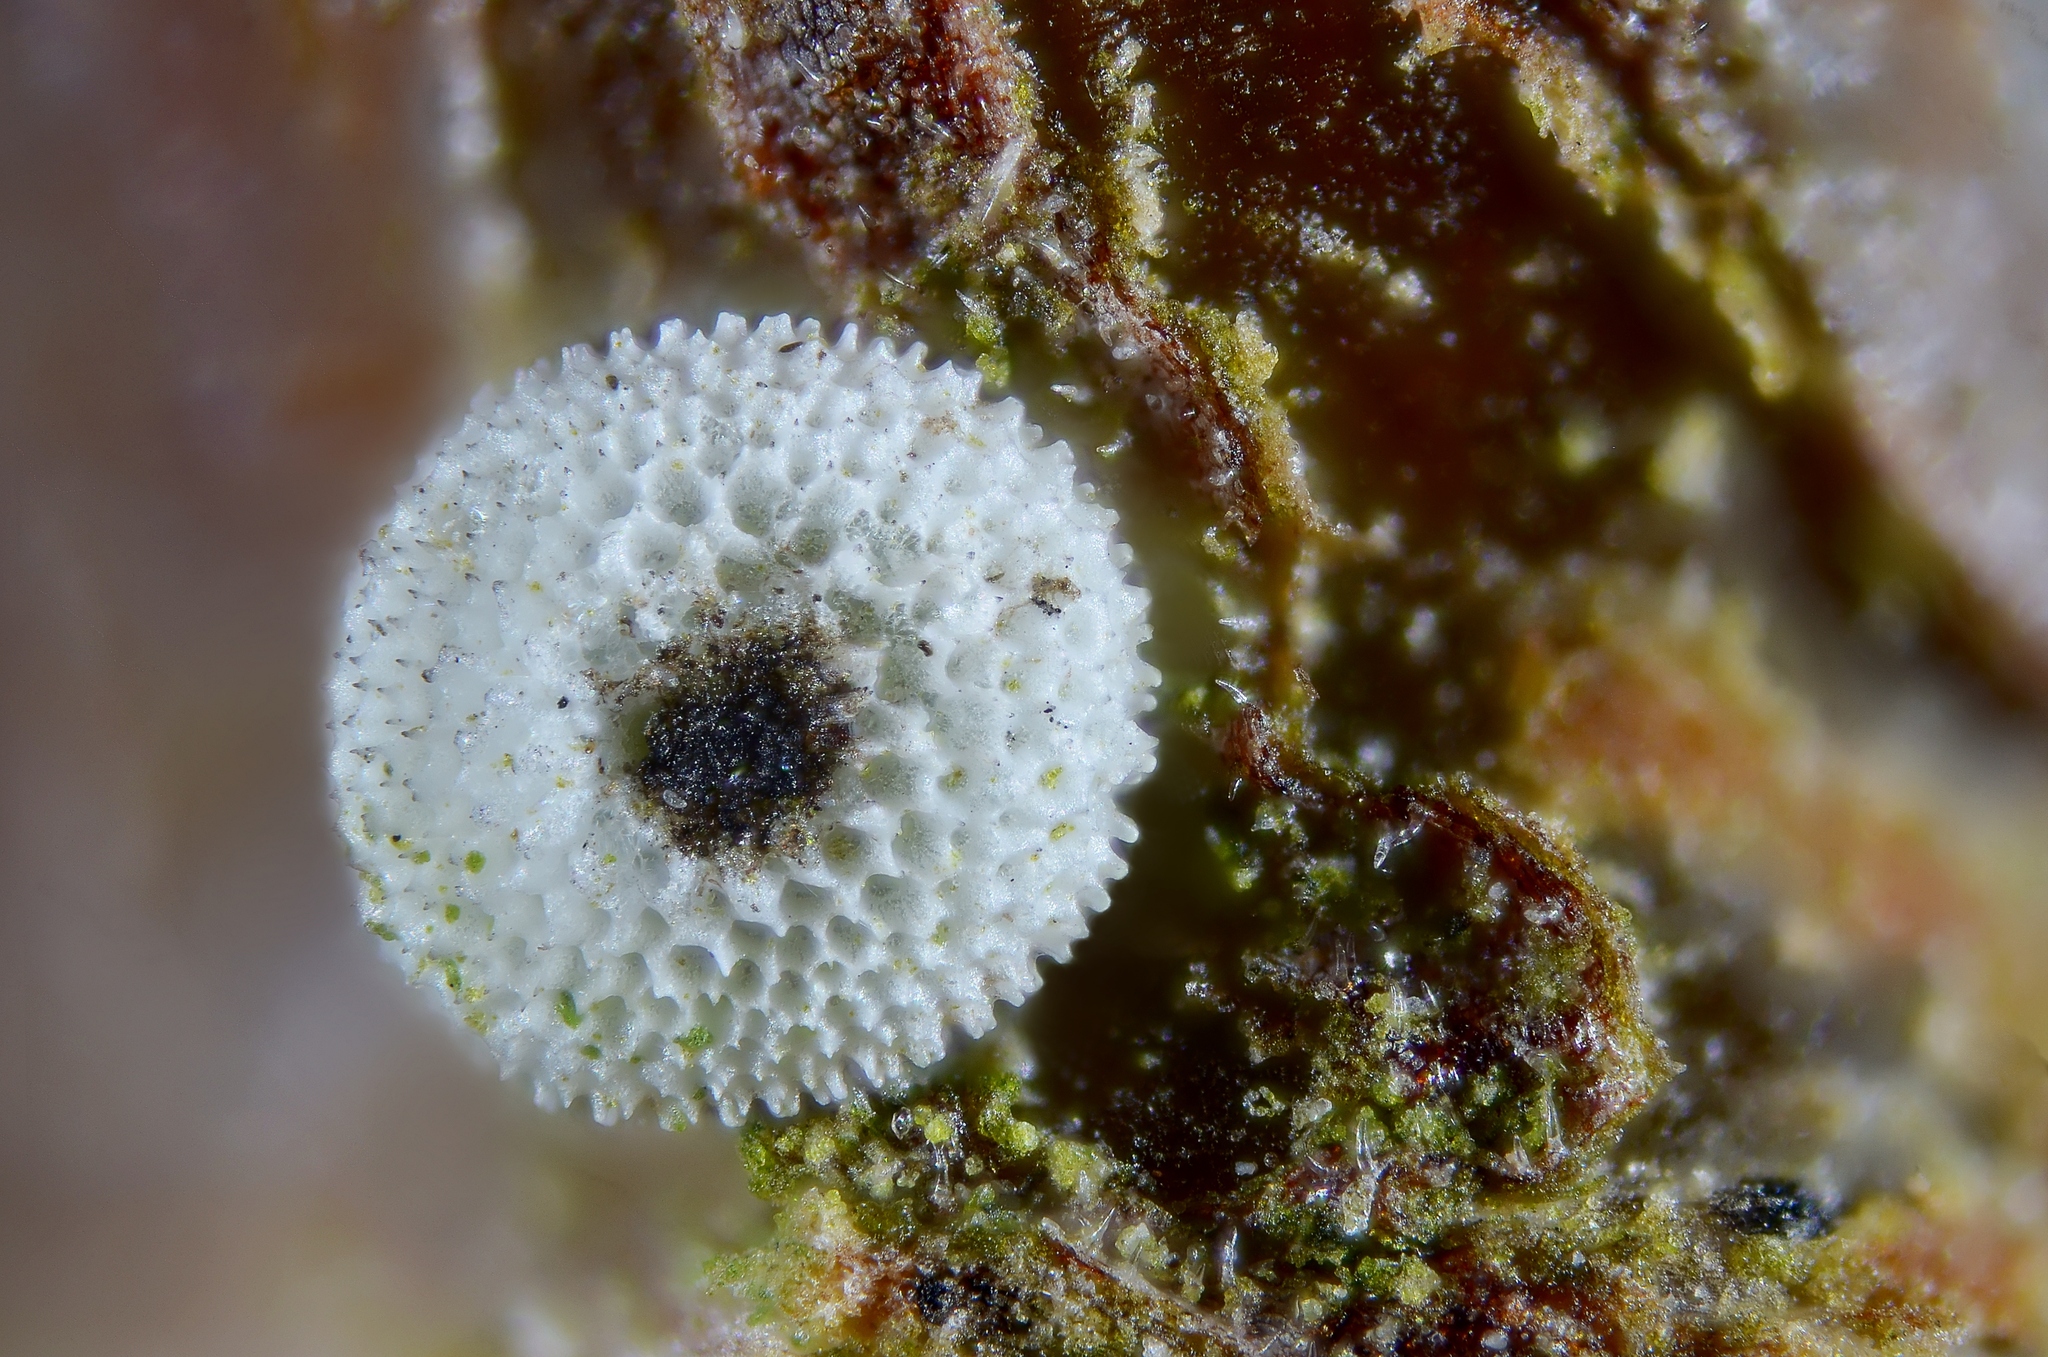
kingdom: Animalia
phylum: Arthropoda
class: Insecta
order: Lepidoptera
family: Lycaenidae
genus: Thecla
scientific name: Thecla betulae
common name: Brown hairstreak
